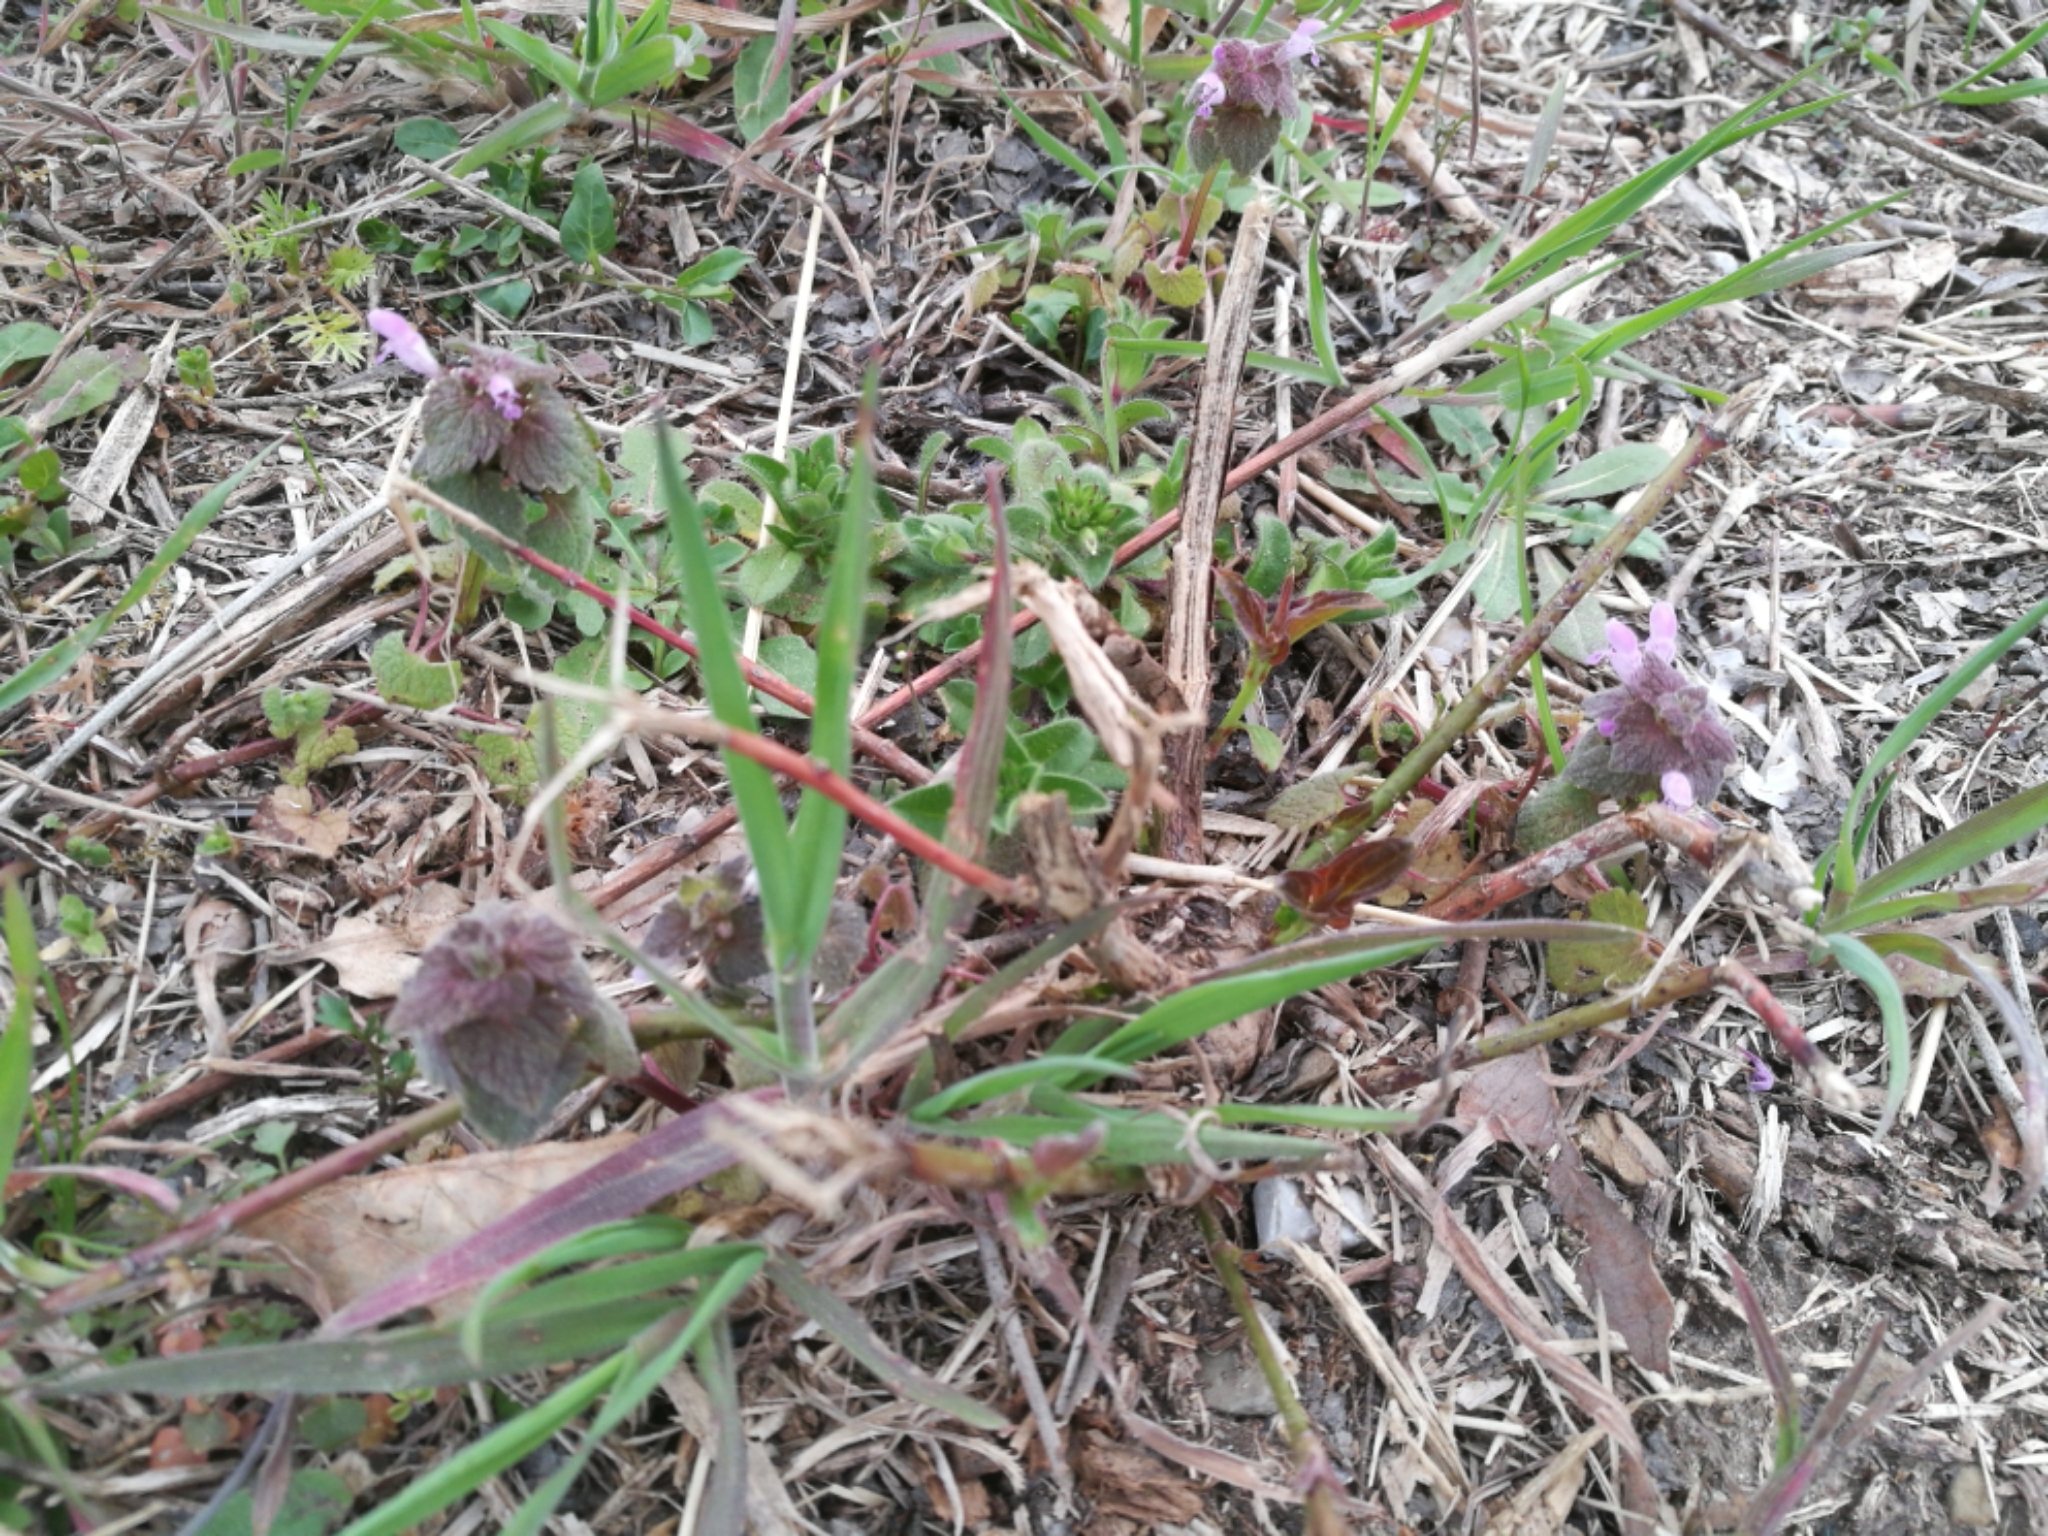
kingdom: Plantae
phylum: Tracheophyta
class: Magnoliopsida
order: Lamiales
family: Lamiaceae
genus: Lamium
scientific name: Lamium purpureum
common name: Red dead-nettle
